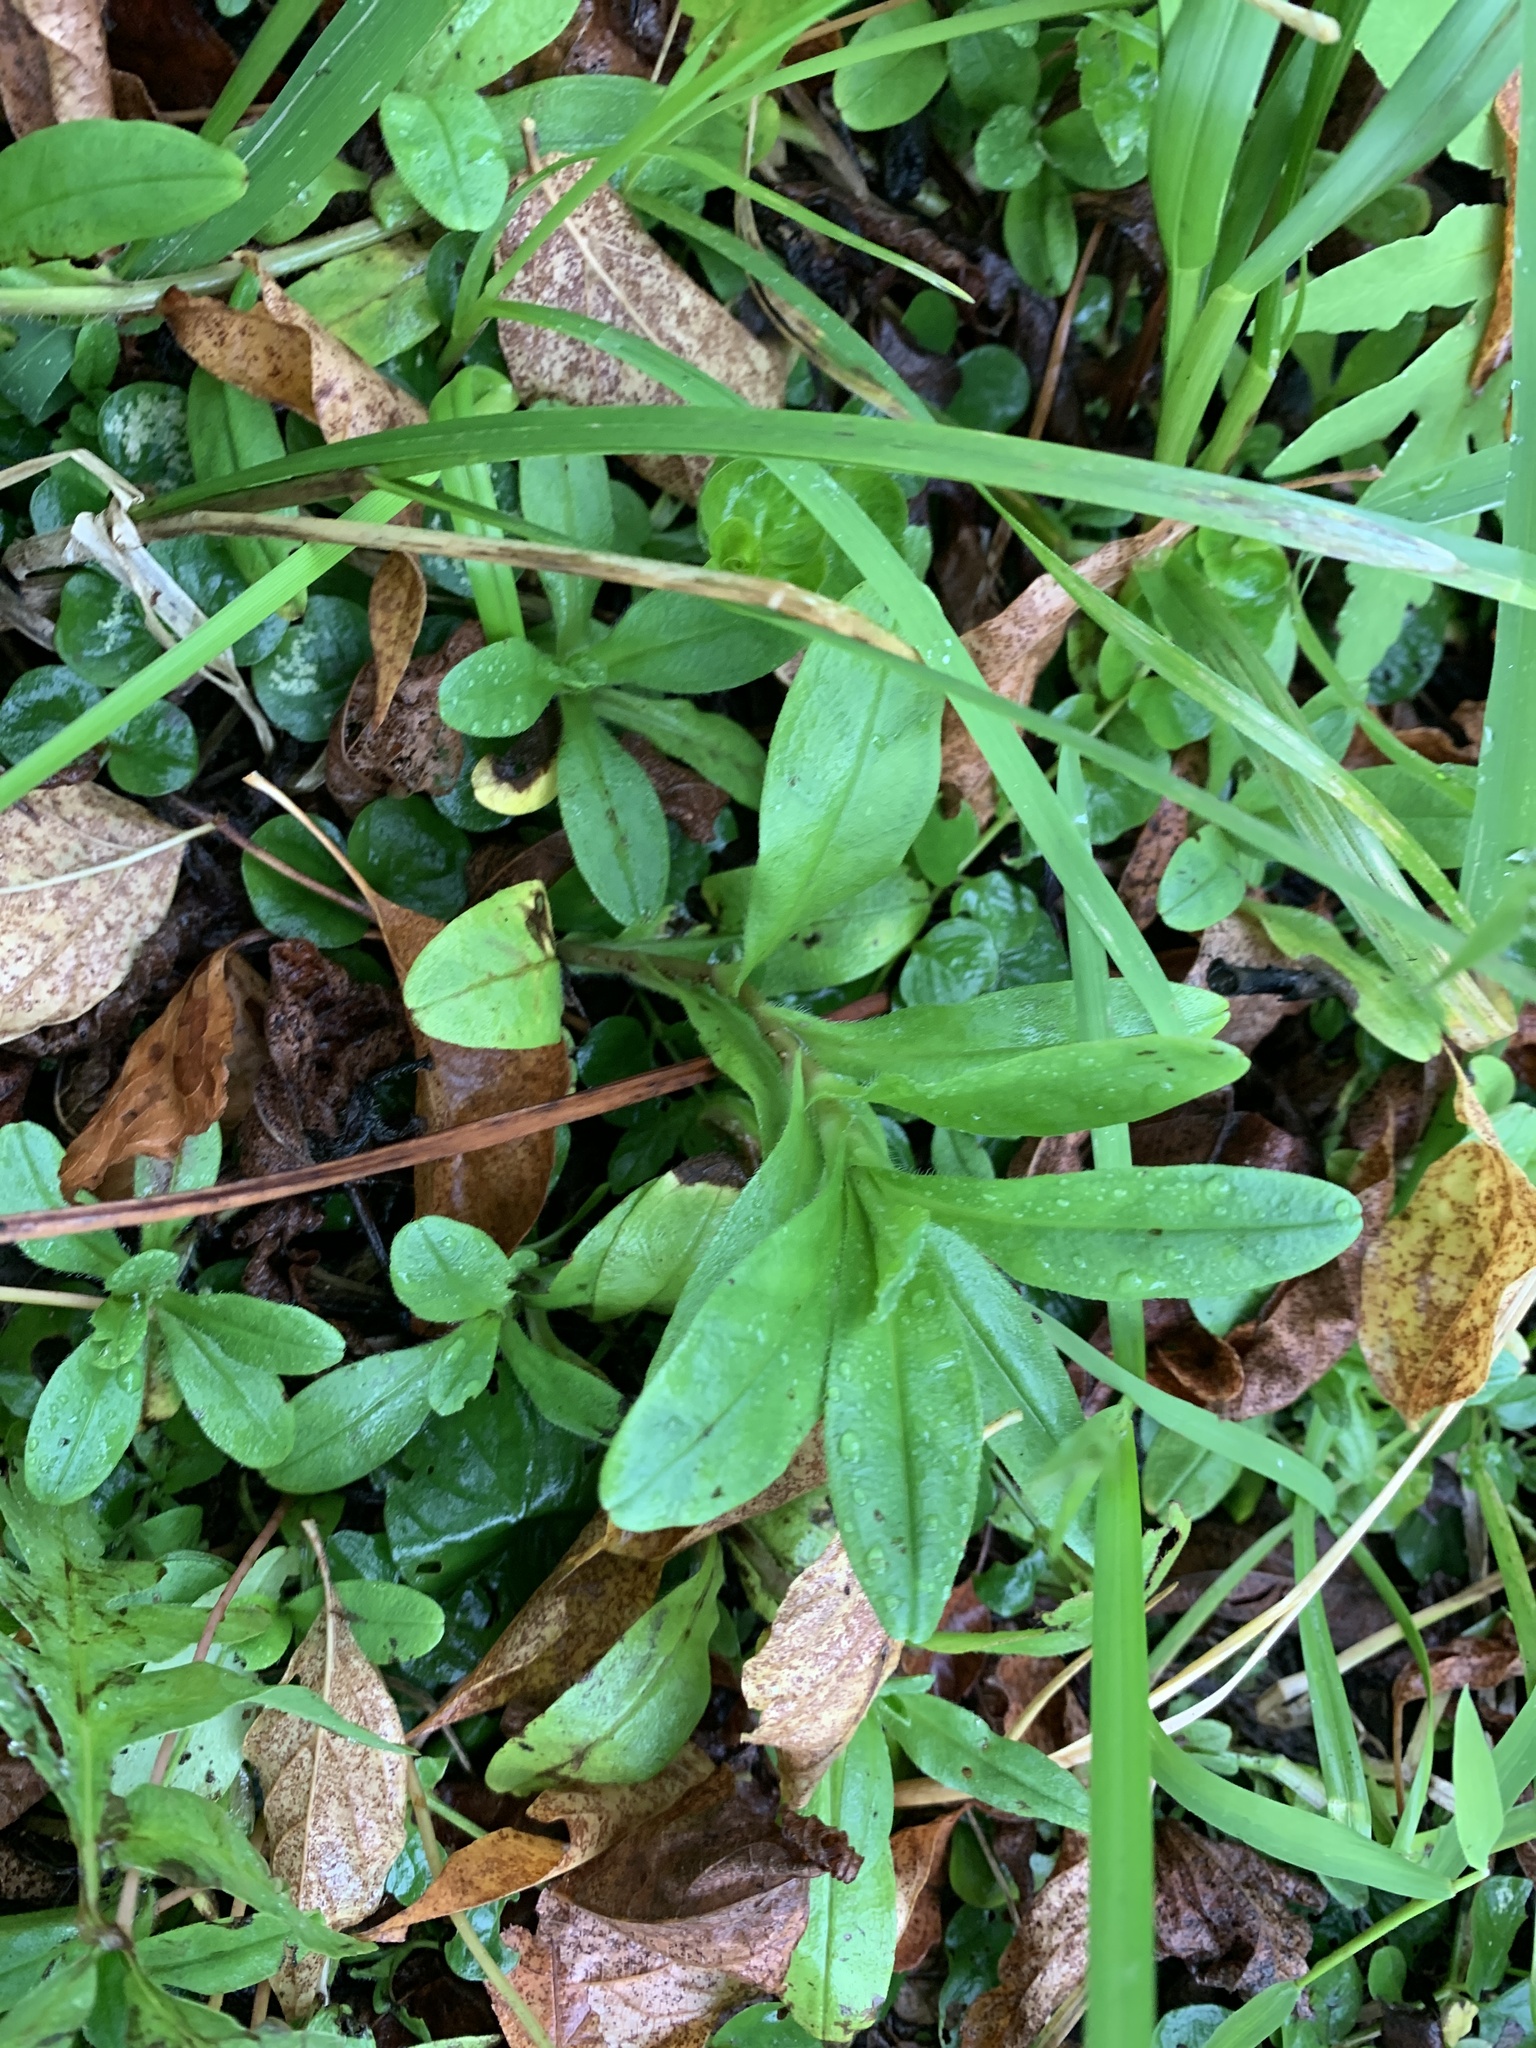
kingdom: Plantae
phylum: Tracheophyta
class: Magnoliopsida
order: Boraginales
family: Boraginaceae
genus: Myosotis
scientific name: Myosotis scorpioides
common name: Water forget-me-not
